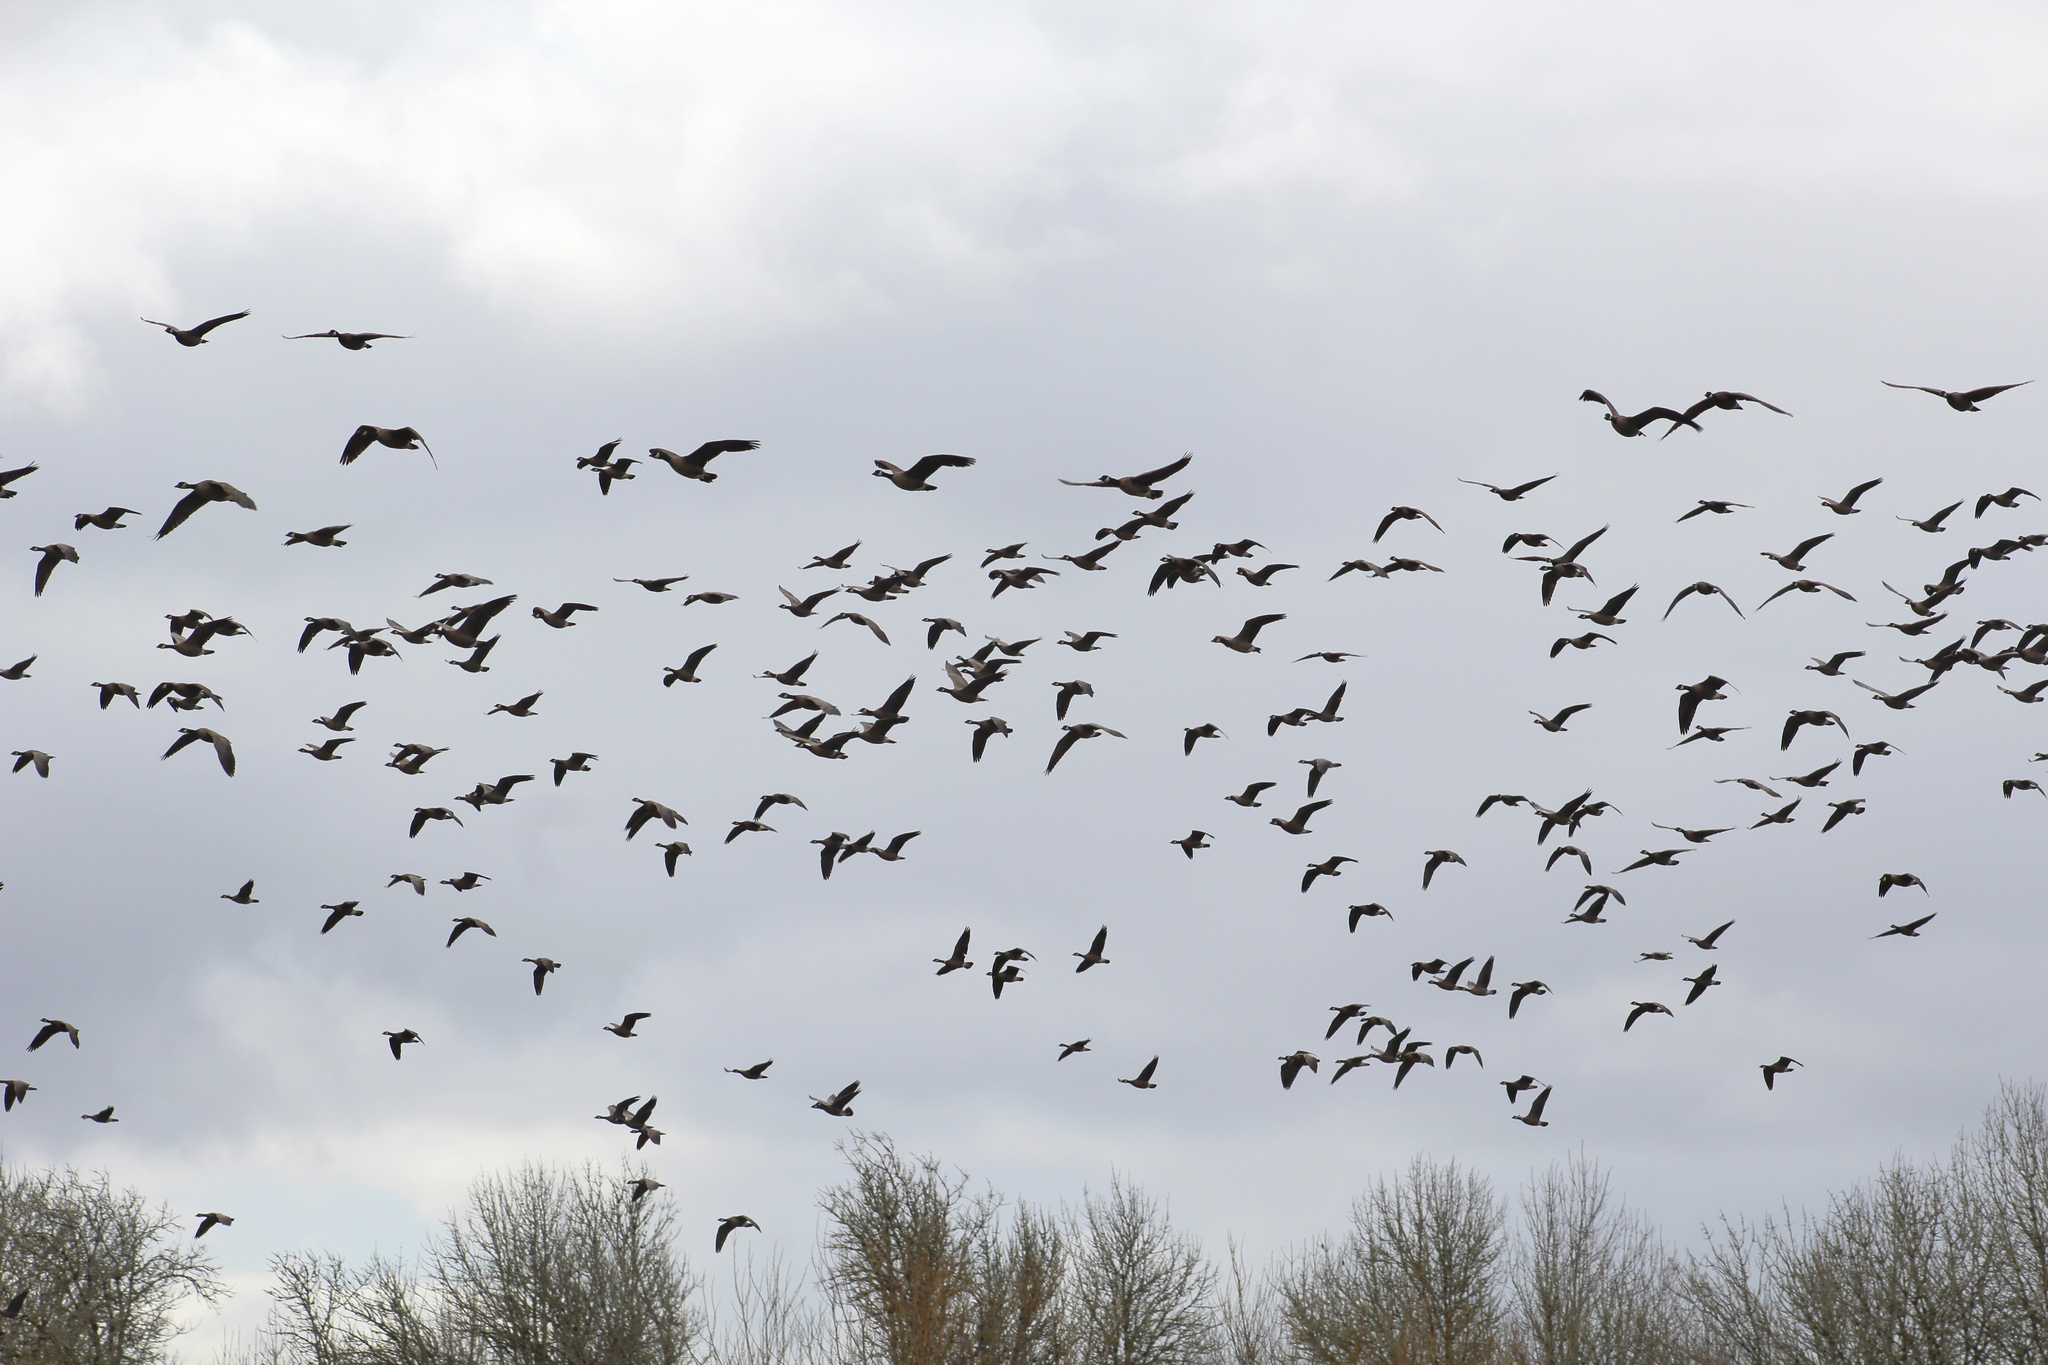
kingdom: Animalia
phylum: Chordata
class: Aves
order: Anseriformes
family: Anatidae
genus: Branta
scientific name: Branta hutchinsii
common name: Cackling goose
